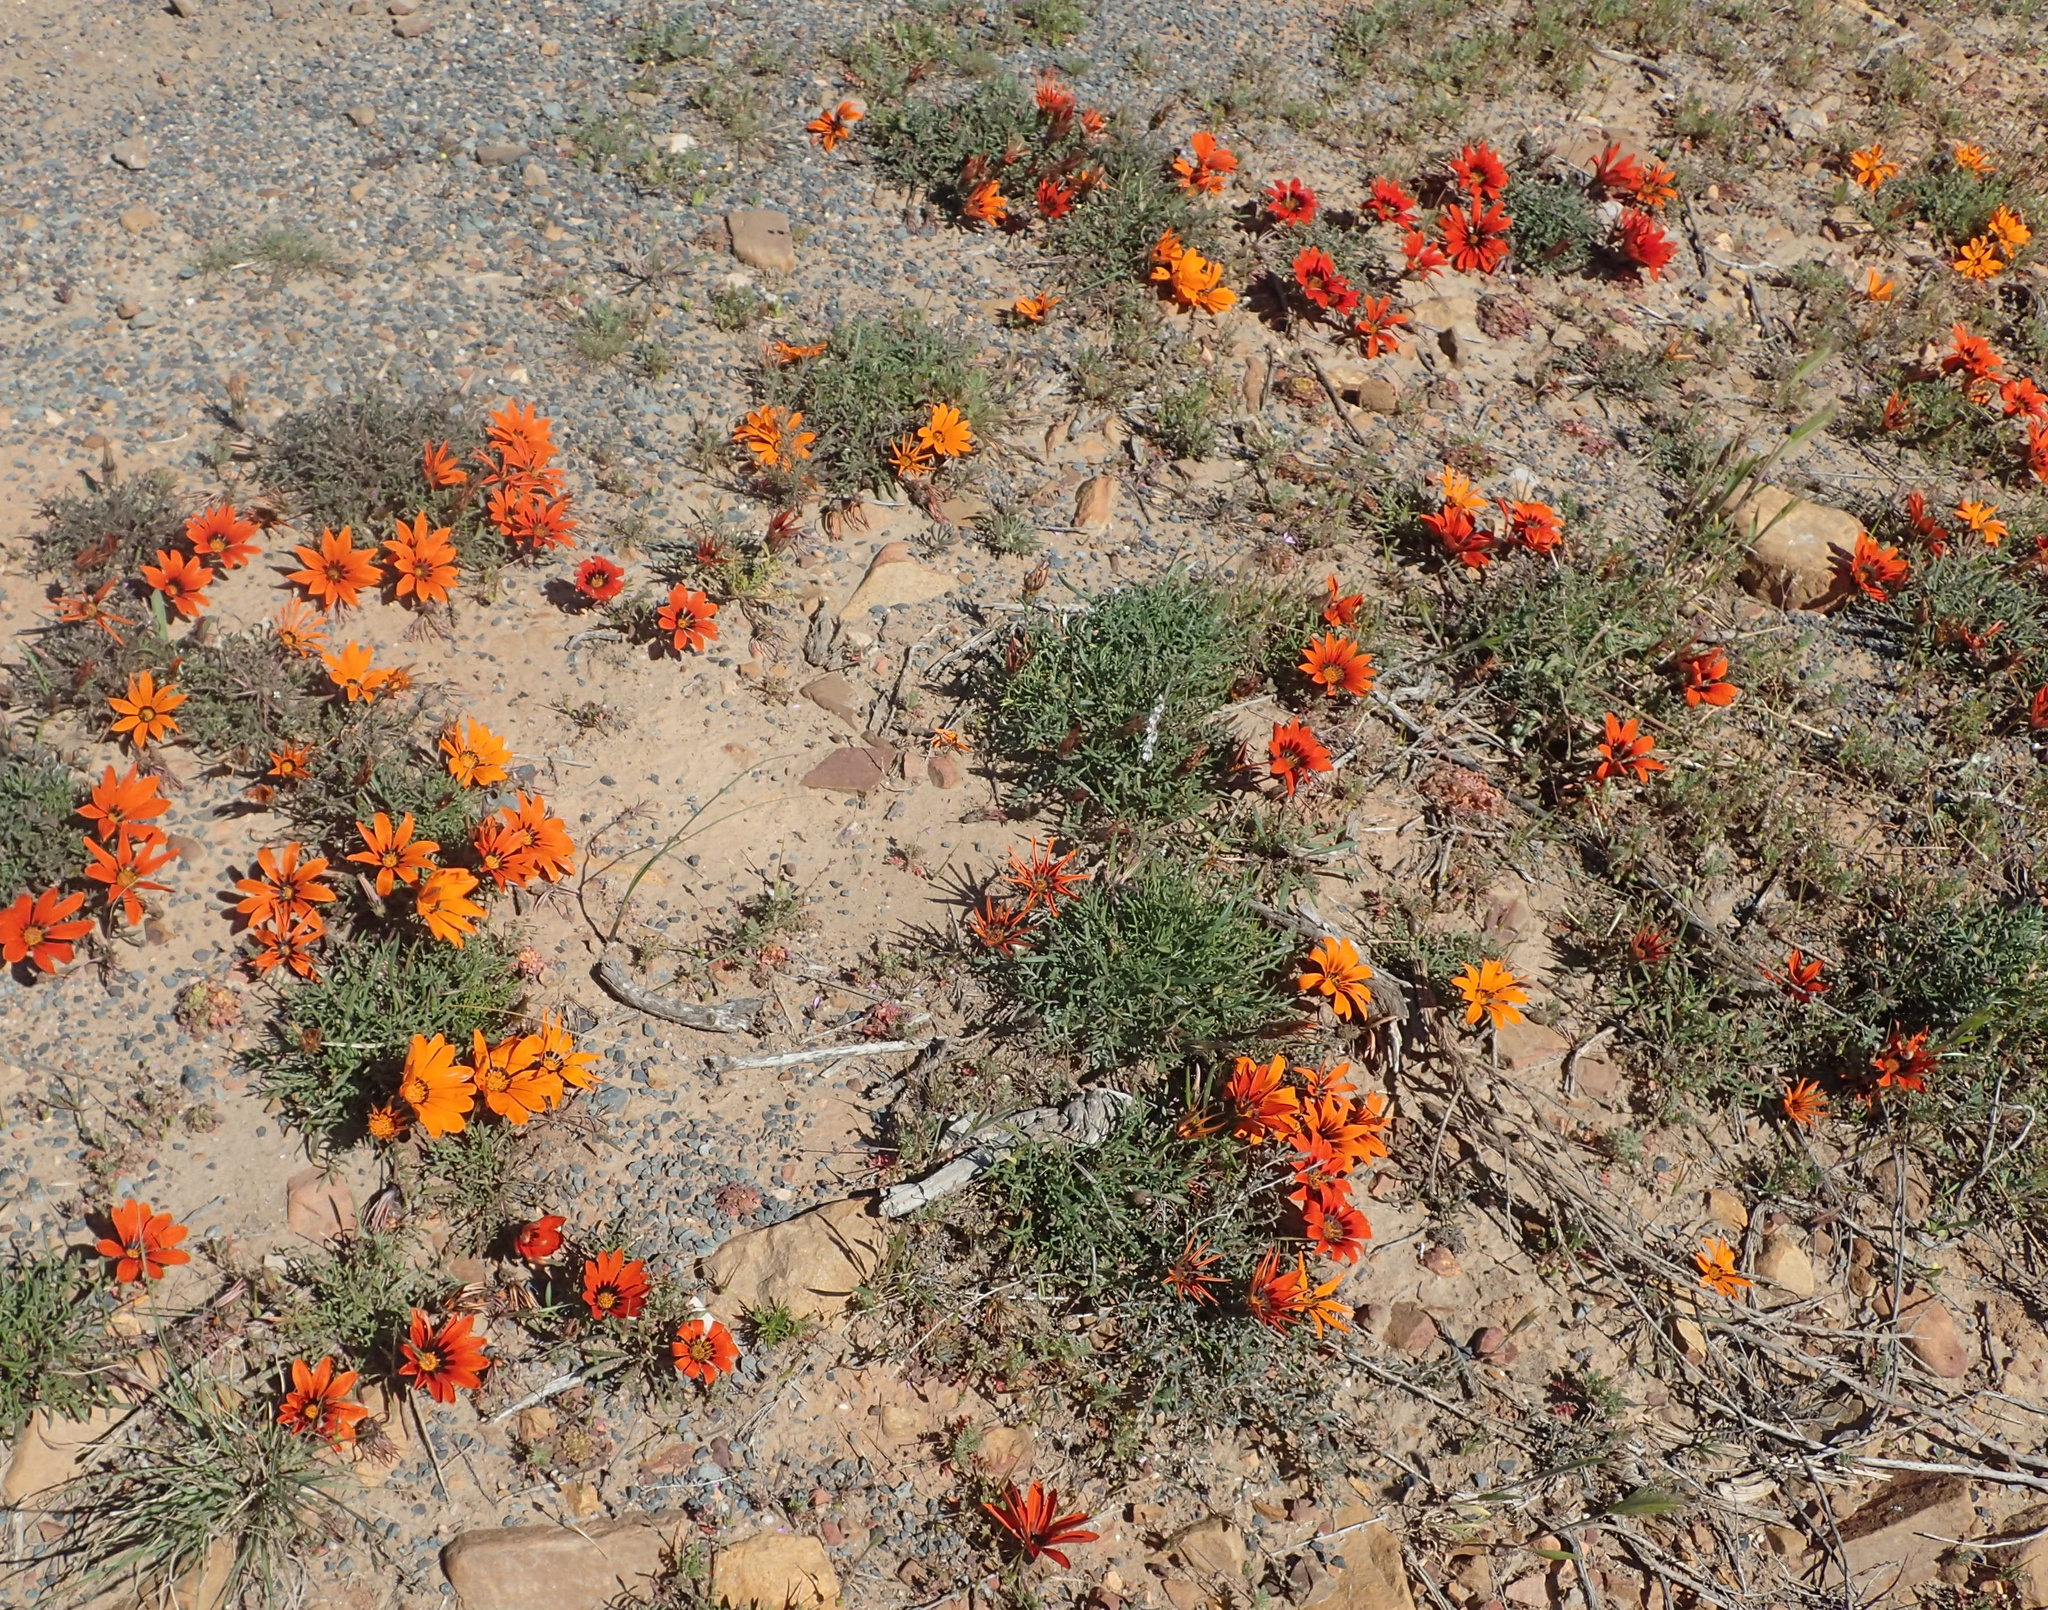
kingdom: Plantae
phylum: Tracheophyta
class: Magnoliopsida
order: Asterales
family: Asteraceae
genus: Gazania
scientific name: Gazania rigida
